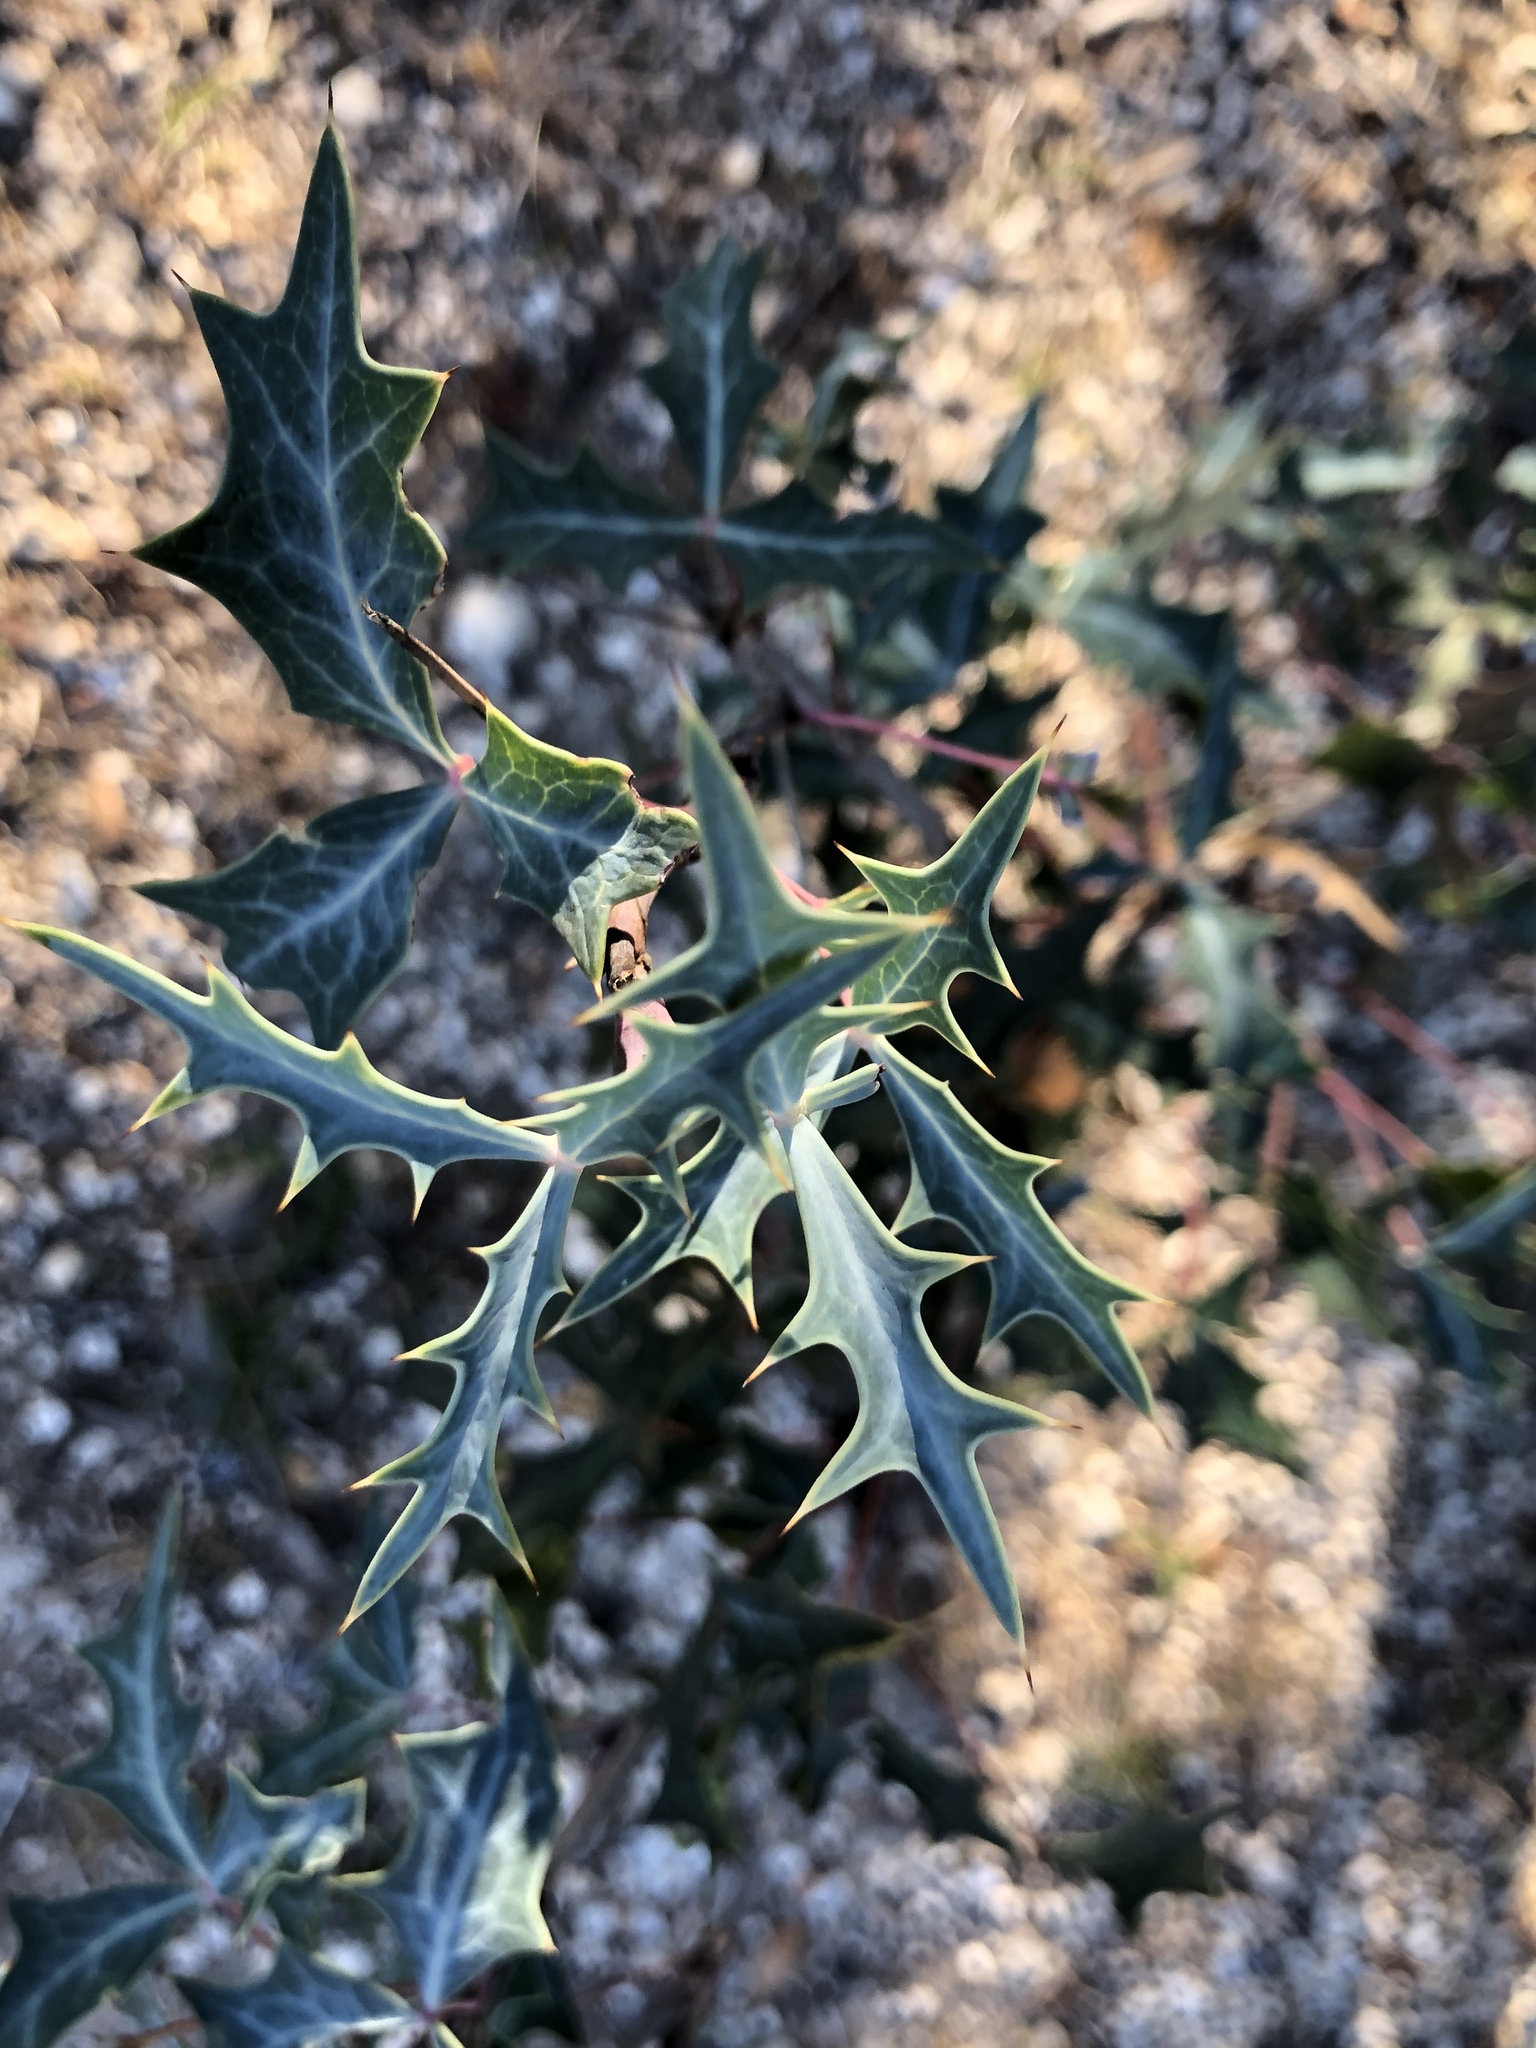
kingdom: Plantae
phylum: Tracheophyta
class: Magnoliopsida
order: Ranunculales
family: Berberidaceae
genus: Alloberberis
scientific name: Alloberberis trifoliolata
